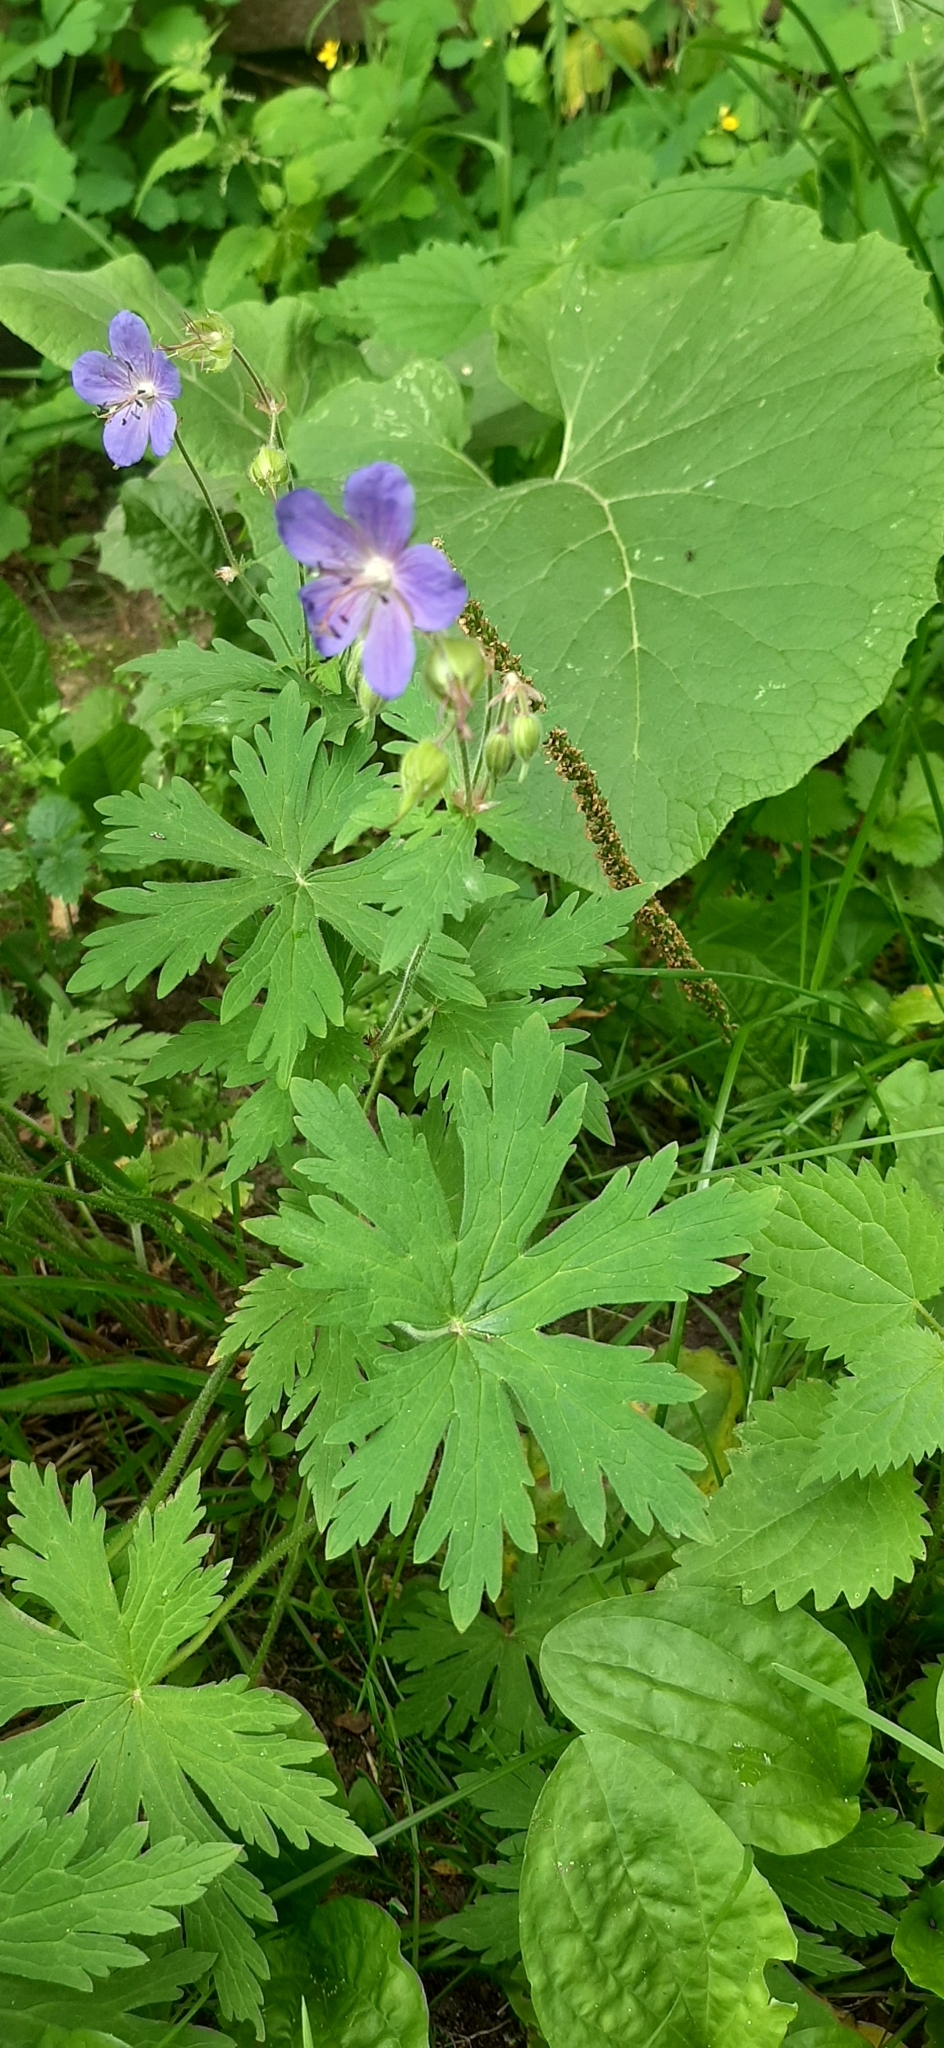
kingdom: Plantae
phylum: Tracheophyta
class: Magnoliopsida
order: Geraniales
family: Geraniaceae
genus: Geranium
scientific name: Geranium pratense
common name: Meadow crane's-bill
